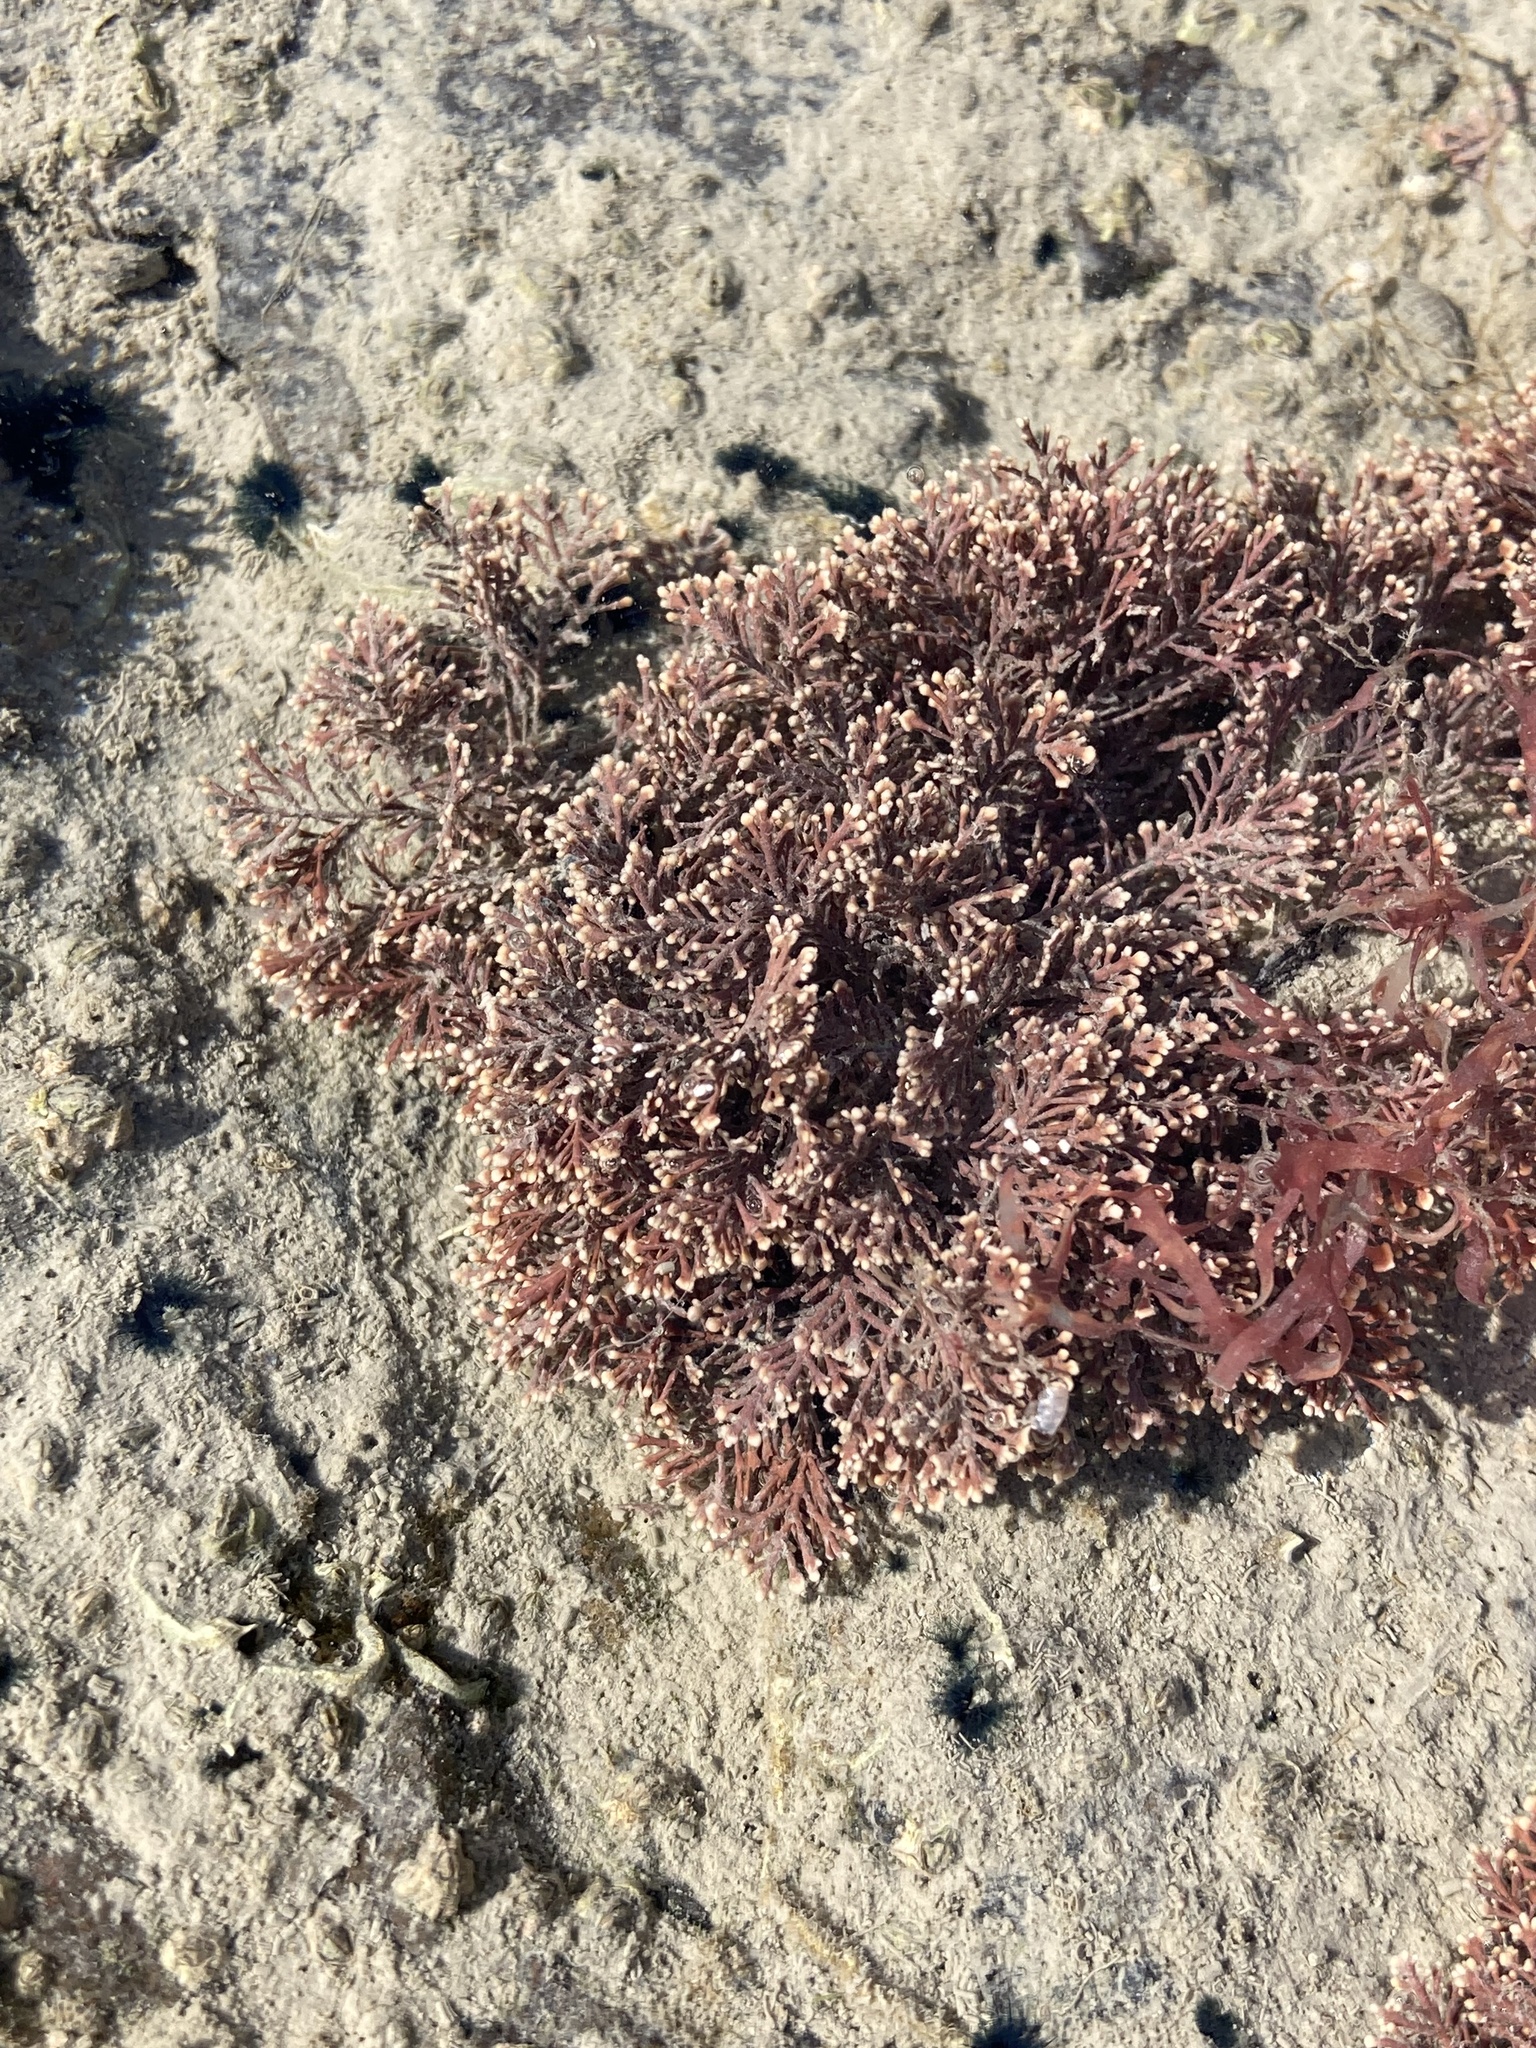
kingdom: Plantae
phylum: Rhodophyta
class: Florideophyceae
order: Corallinales
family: Corallinaceae
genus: Corallina
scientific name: Corallina officinalis
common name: Coral weed
